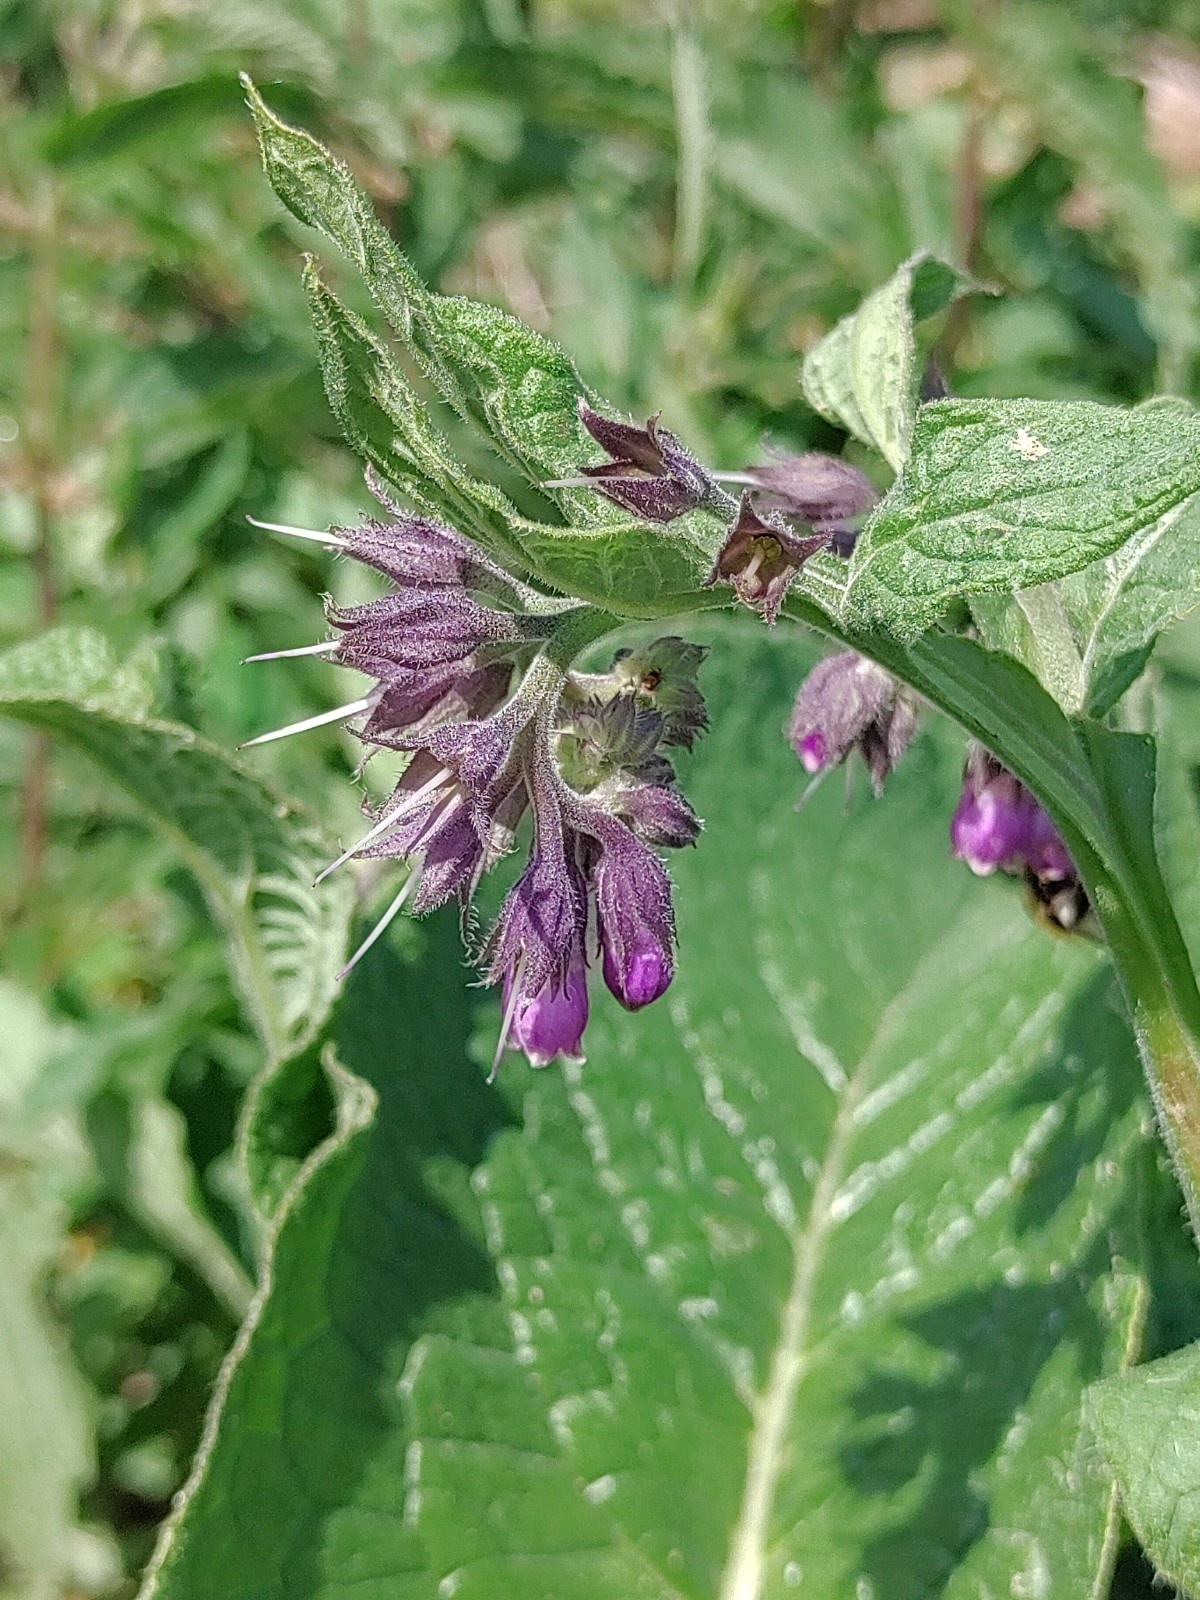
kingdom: Plantae
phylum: Tracheophyta
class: Magnoliopsida
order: Boraginales
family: Boraginaceae
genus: Symphytum
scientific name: Symphytum officinale
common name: Common comfrey
